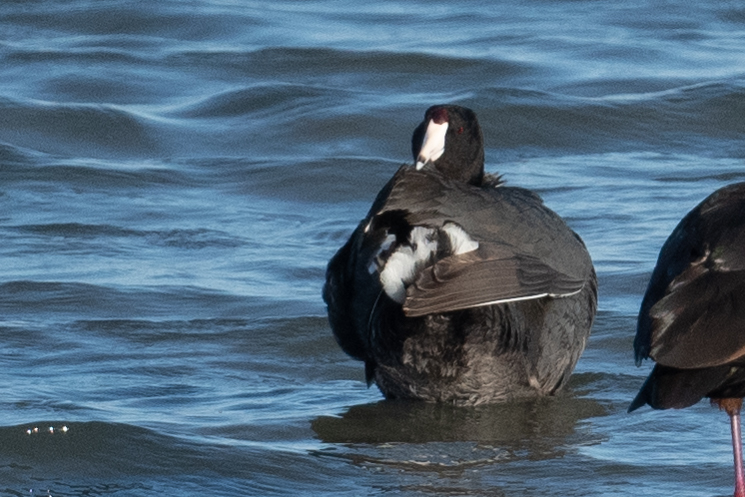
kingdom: Animalia
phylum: Chordata
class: Aves
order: Gruiformes
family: Rallidae
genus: Fulica
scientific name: Fulica americana
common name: American coot
